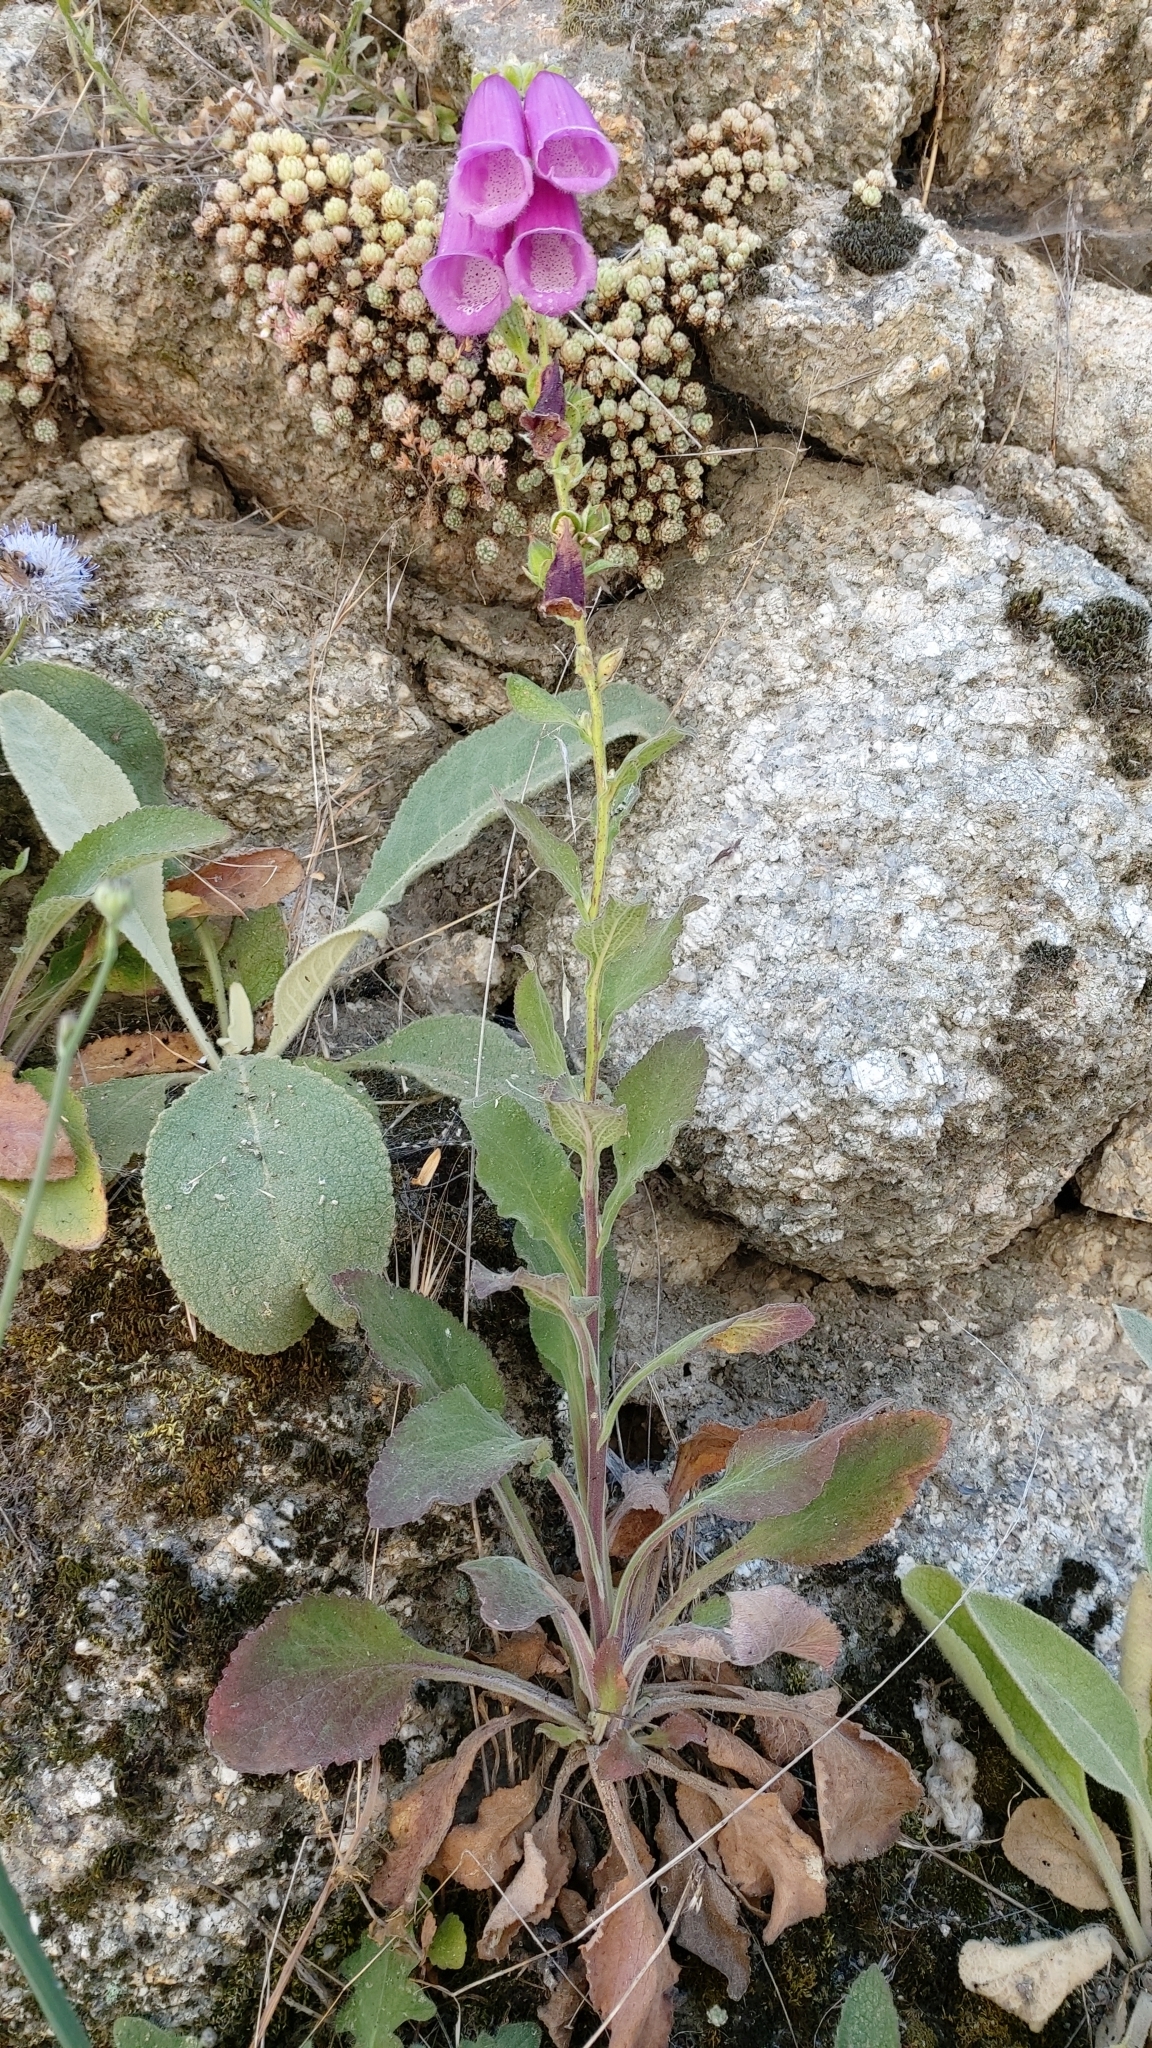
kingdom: Plantae
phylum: Tracheophyta
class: Magnoliopsida
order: Lamiales
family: Plantaginaceae
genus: Digitalis
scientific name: Digitalis purpurea
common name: Foxglove
